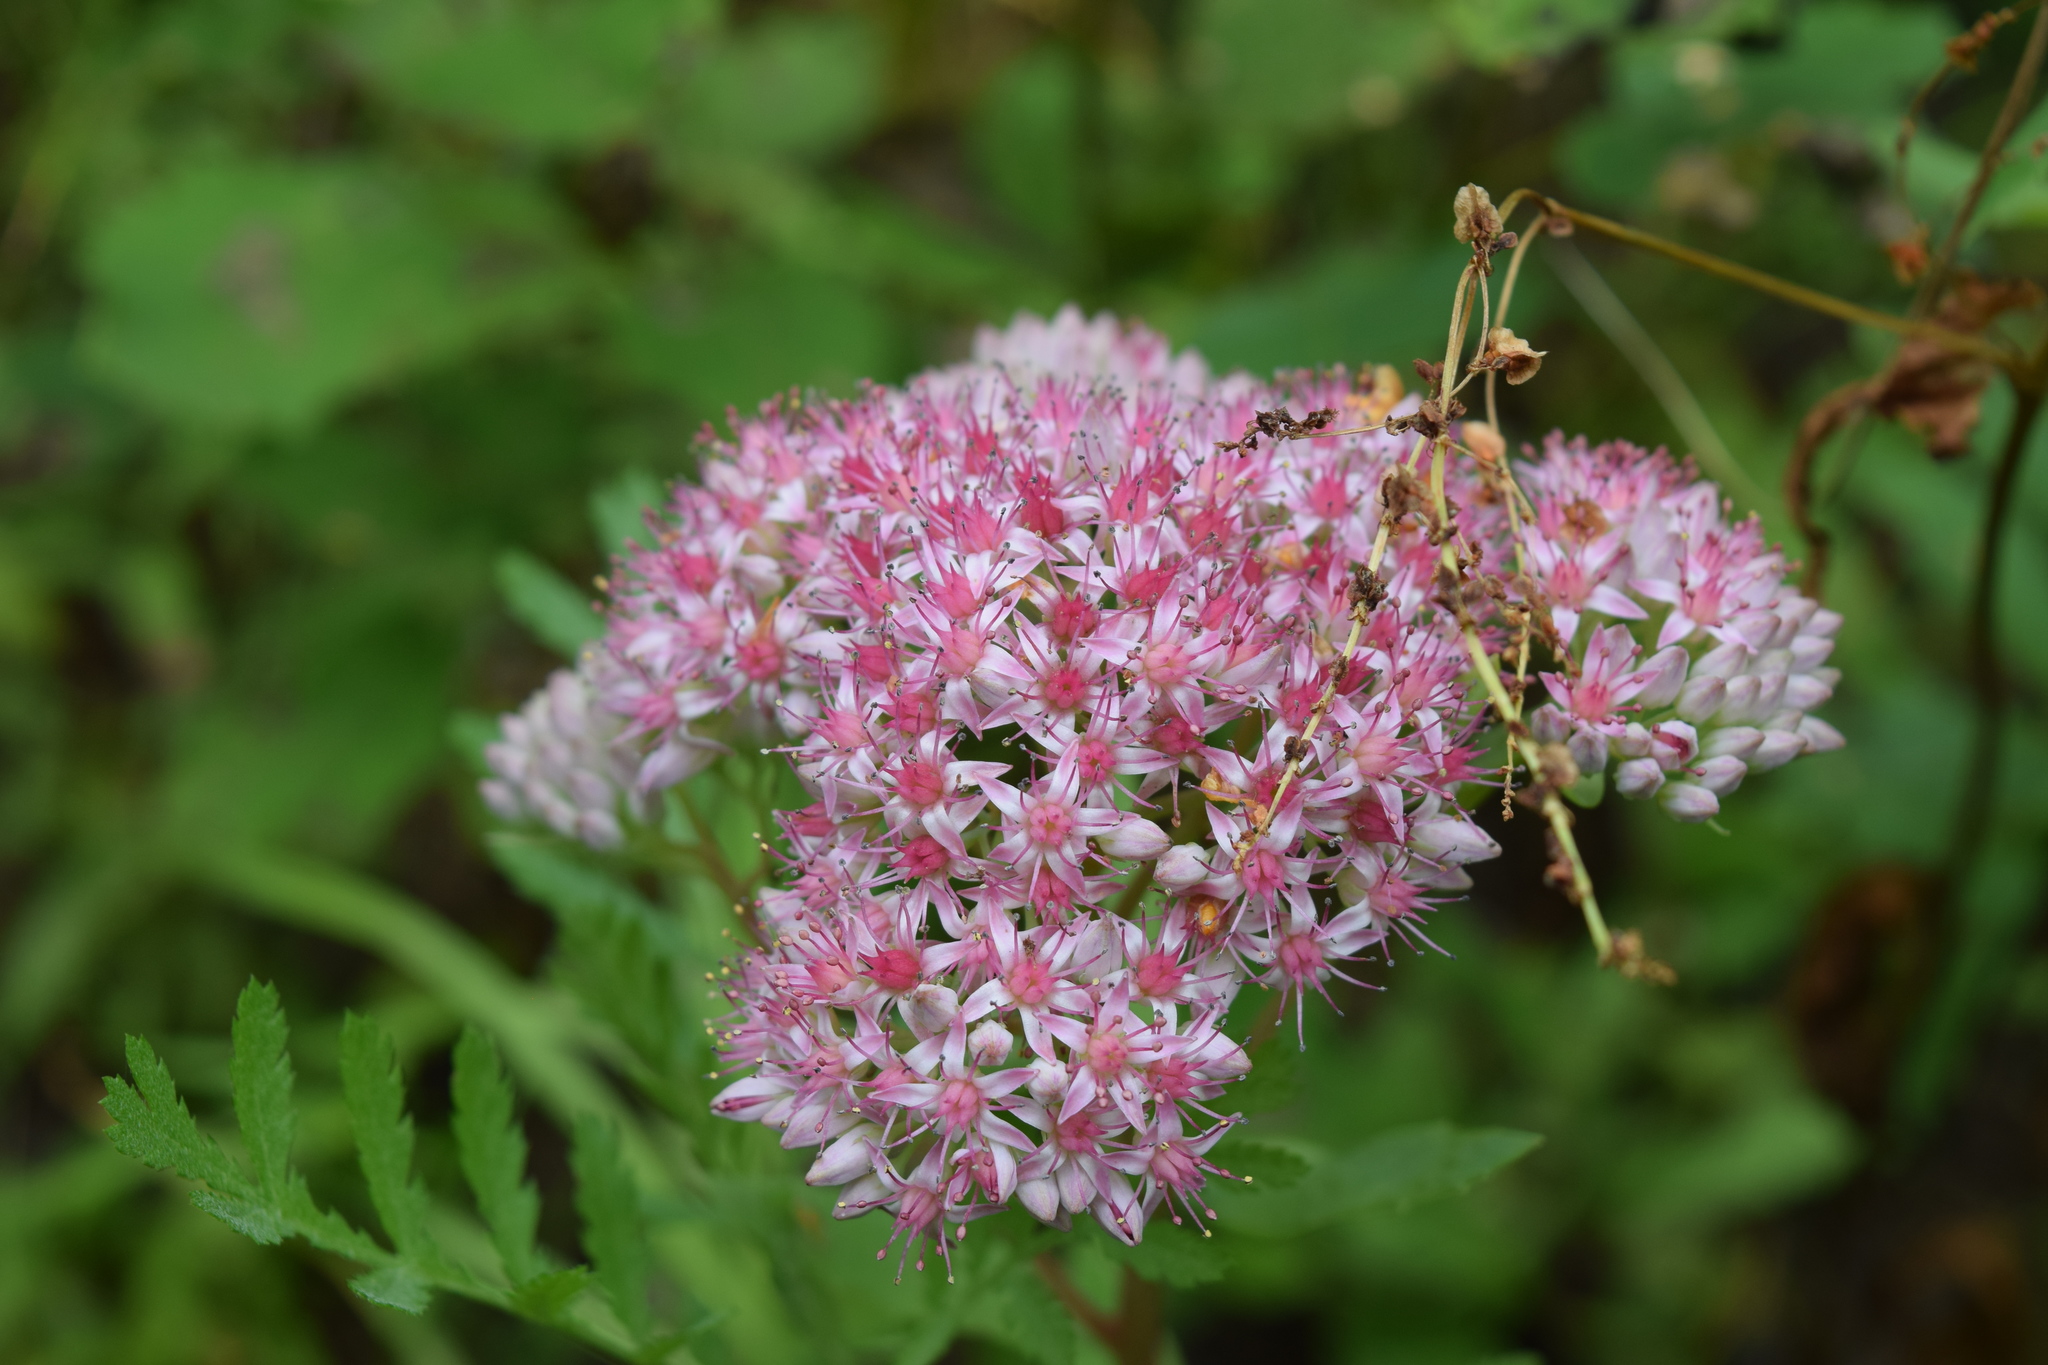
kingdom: Plantae
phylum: Tracheophyta
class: Magnoliopsida
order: Saxifragales
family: Crassulaceae
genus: Hylotelephium
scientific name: Hylotelephium telephium
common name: Live-forever
